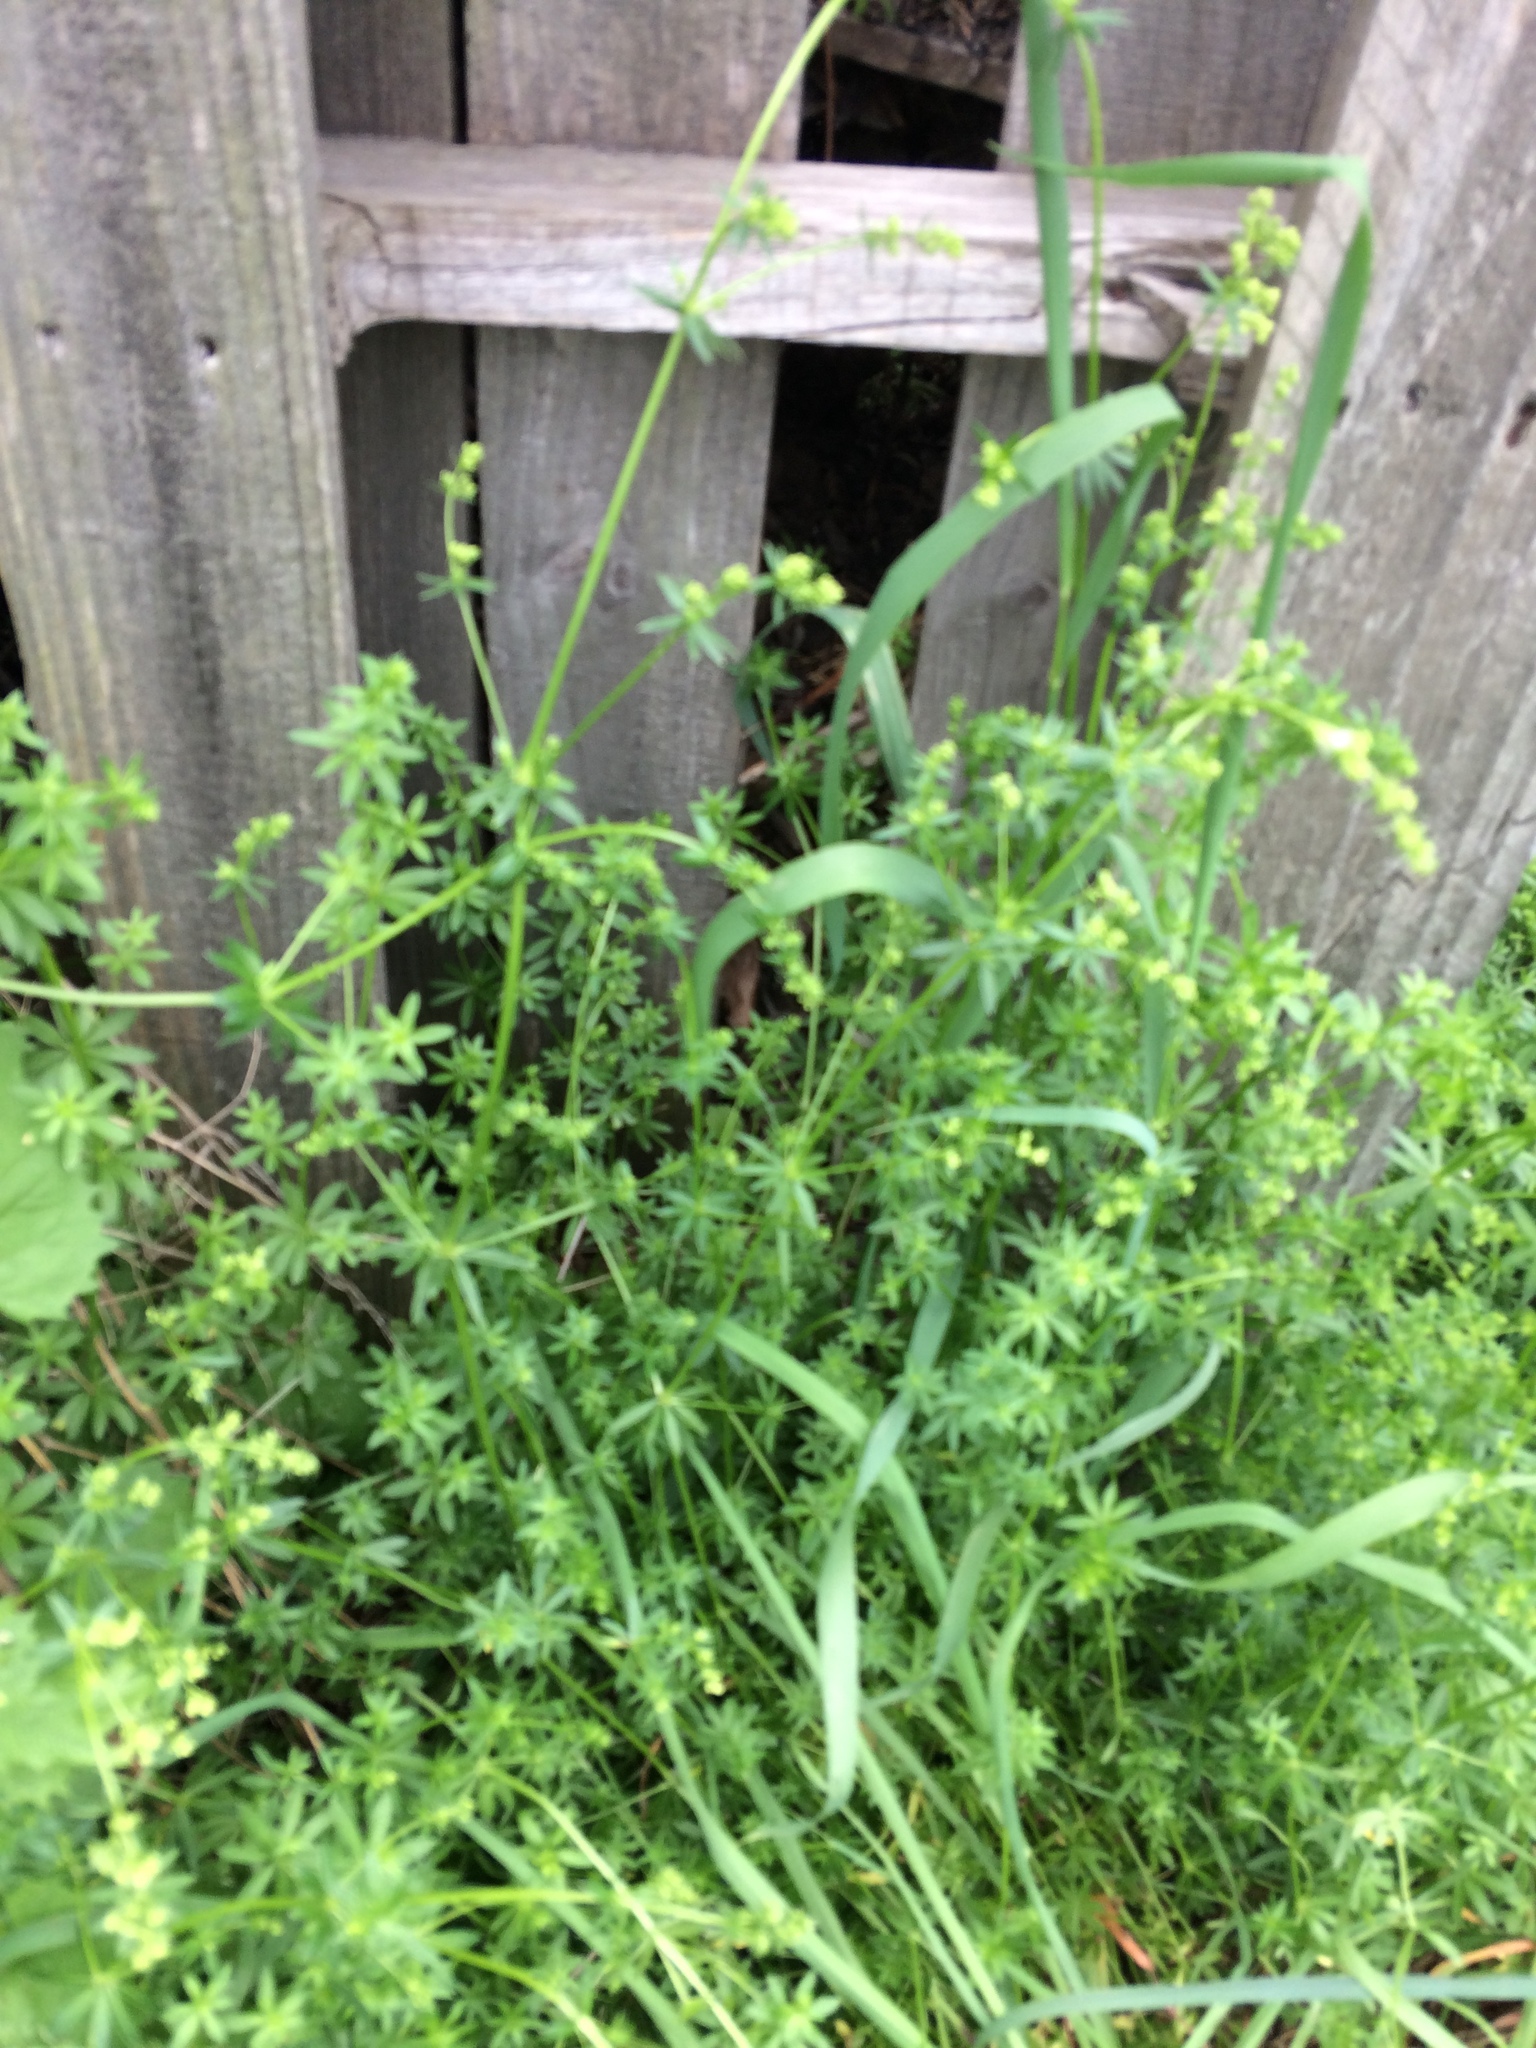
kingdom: Plantae
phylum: Tracheophyta
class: Magnoliopsida
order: Gentianales
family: Rubiaceae
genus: Galium
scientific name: Galium mollugo
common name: Hedge bedstraw
